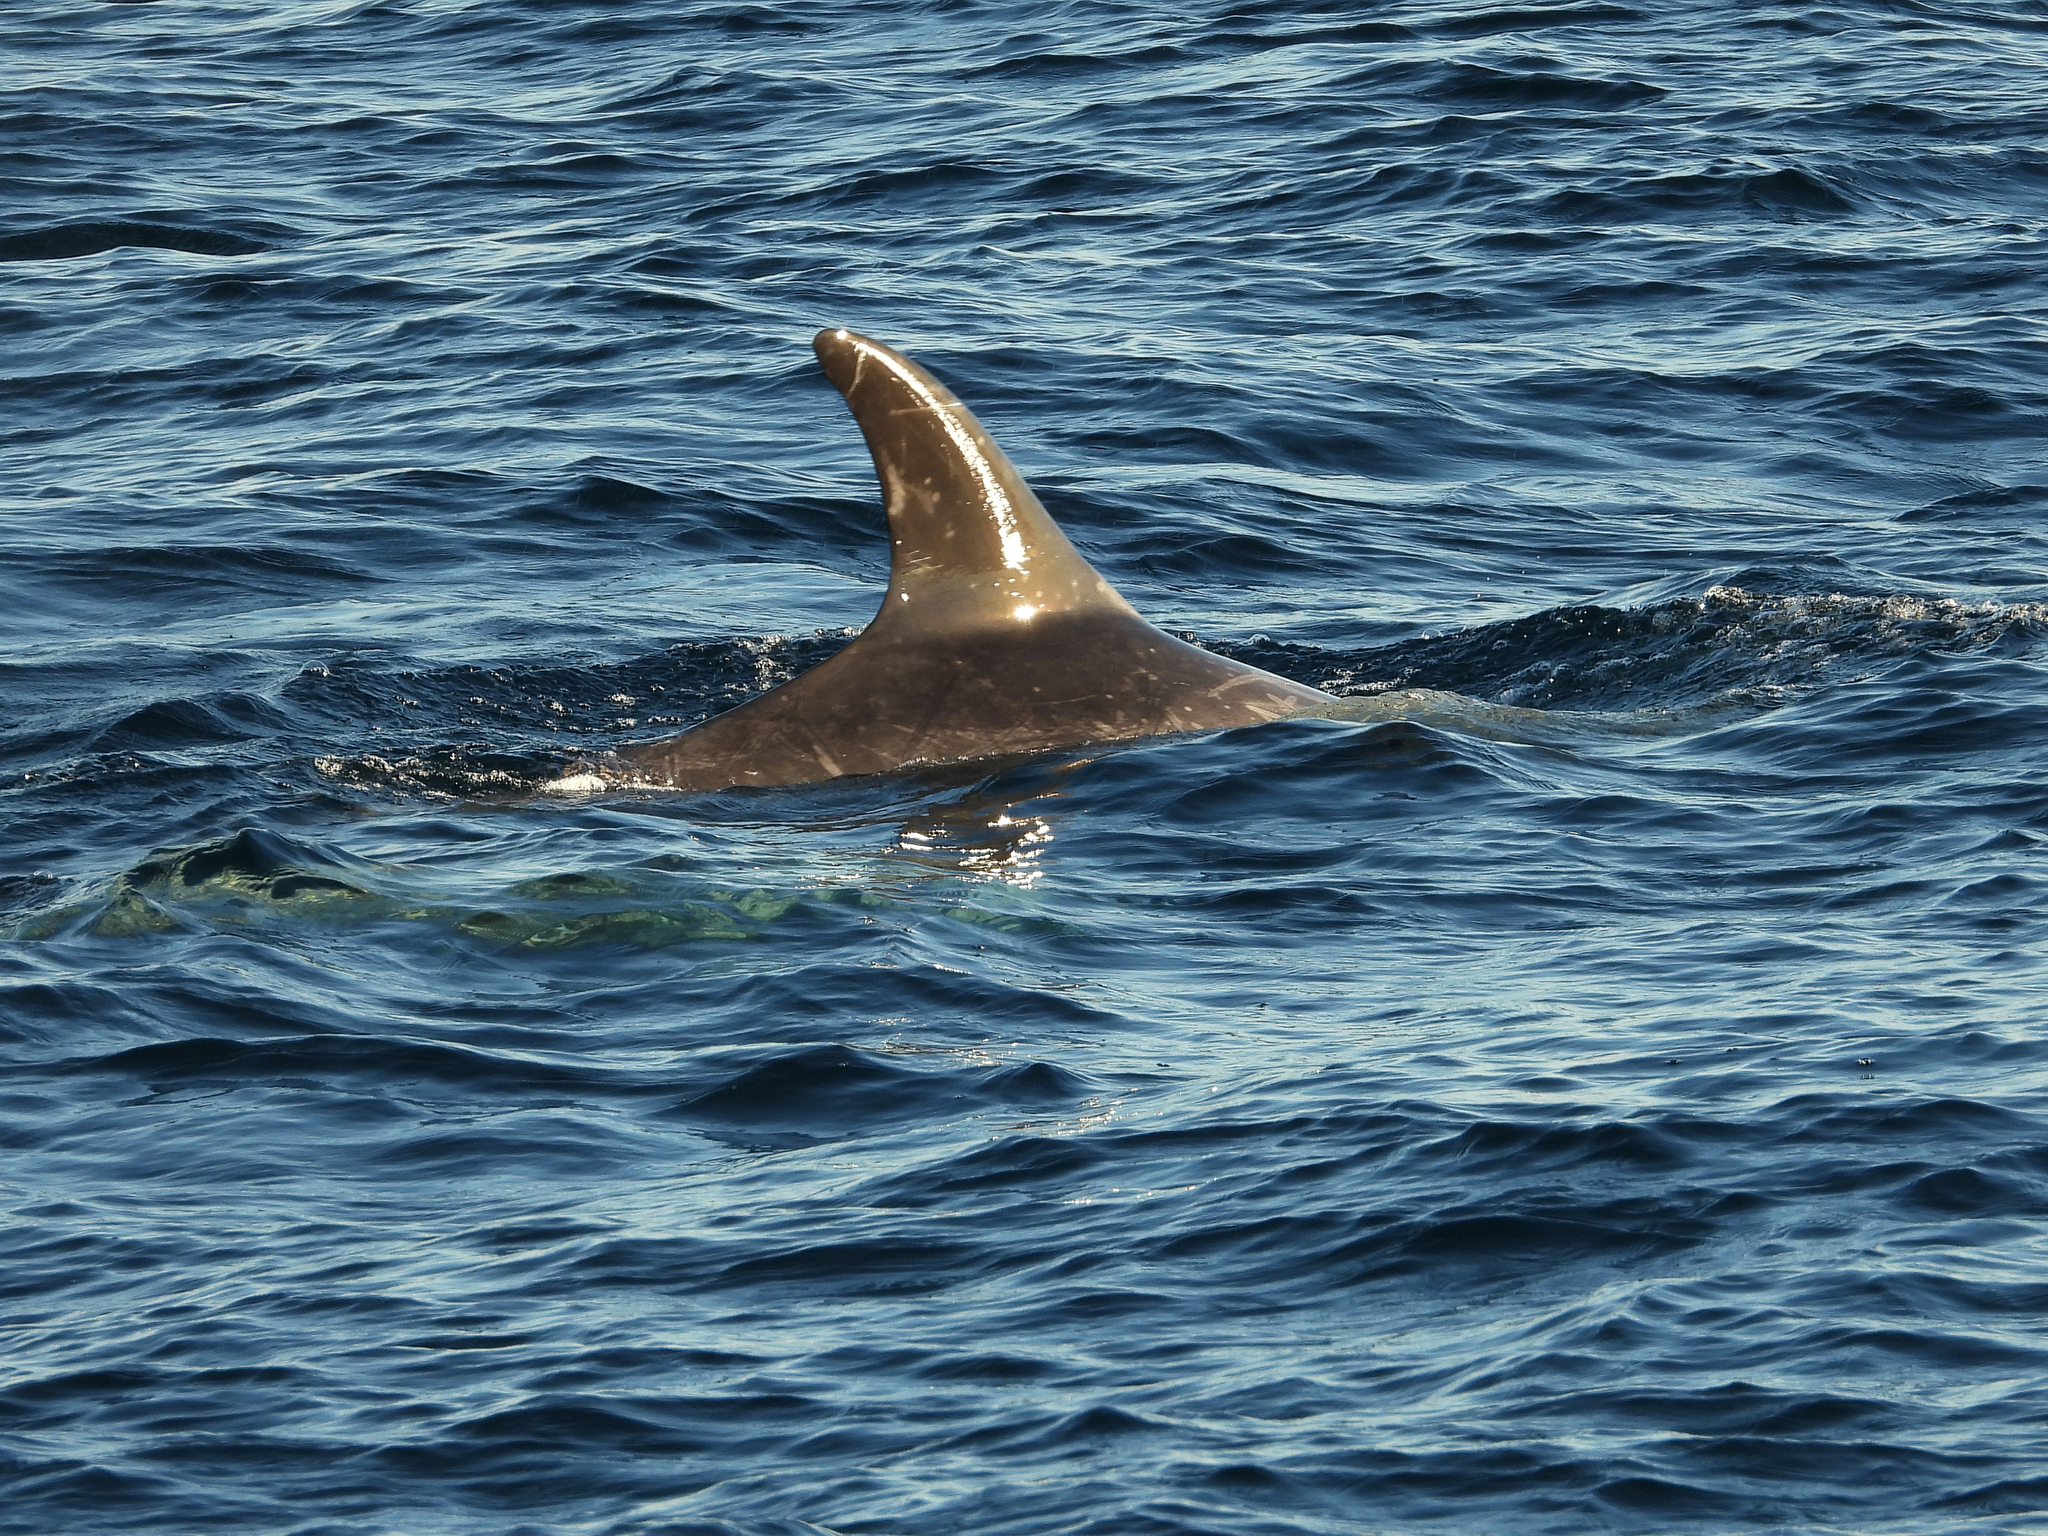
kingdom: Animalia
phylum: Chordata
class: Mammalia
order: Cetacea
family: Delphinidae
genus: Grampus
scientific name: Grampus griseus
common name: Risso's dolphin
